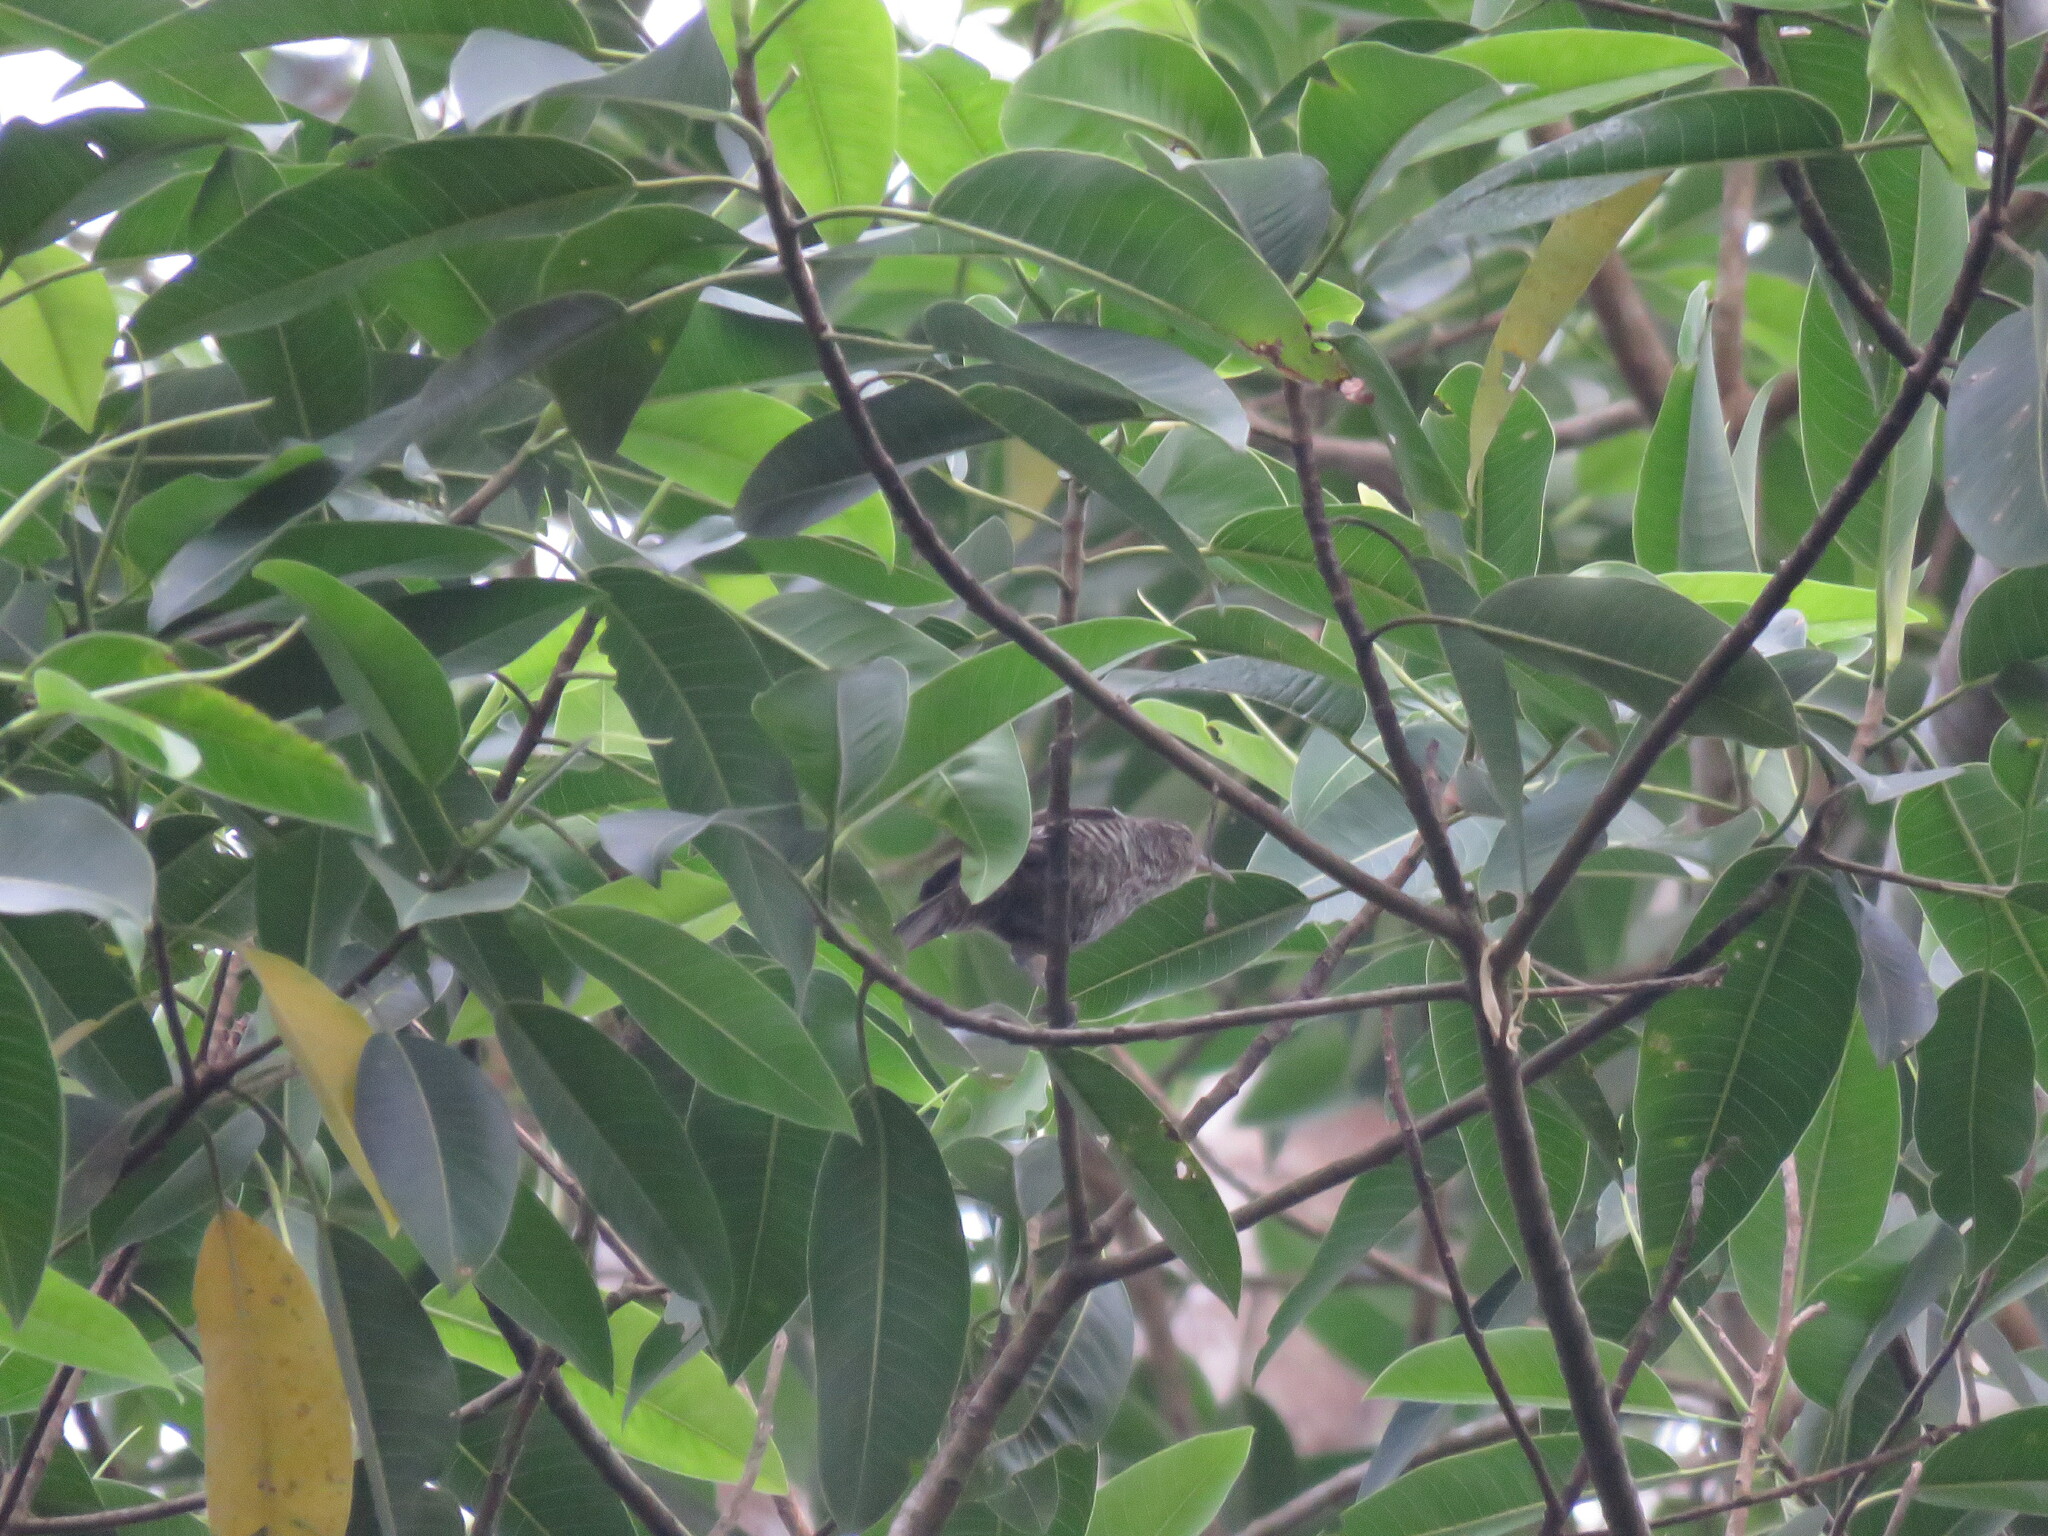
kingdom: Animalia
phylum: Chordata
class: Aves
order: Passeriformes
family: Troglodytidae
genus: Campylorhynchus
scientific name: Campylorhynchus turdinus
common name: Thrush-like wren
